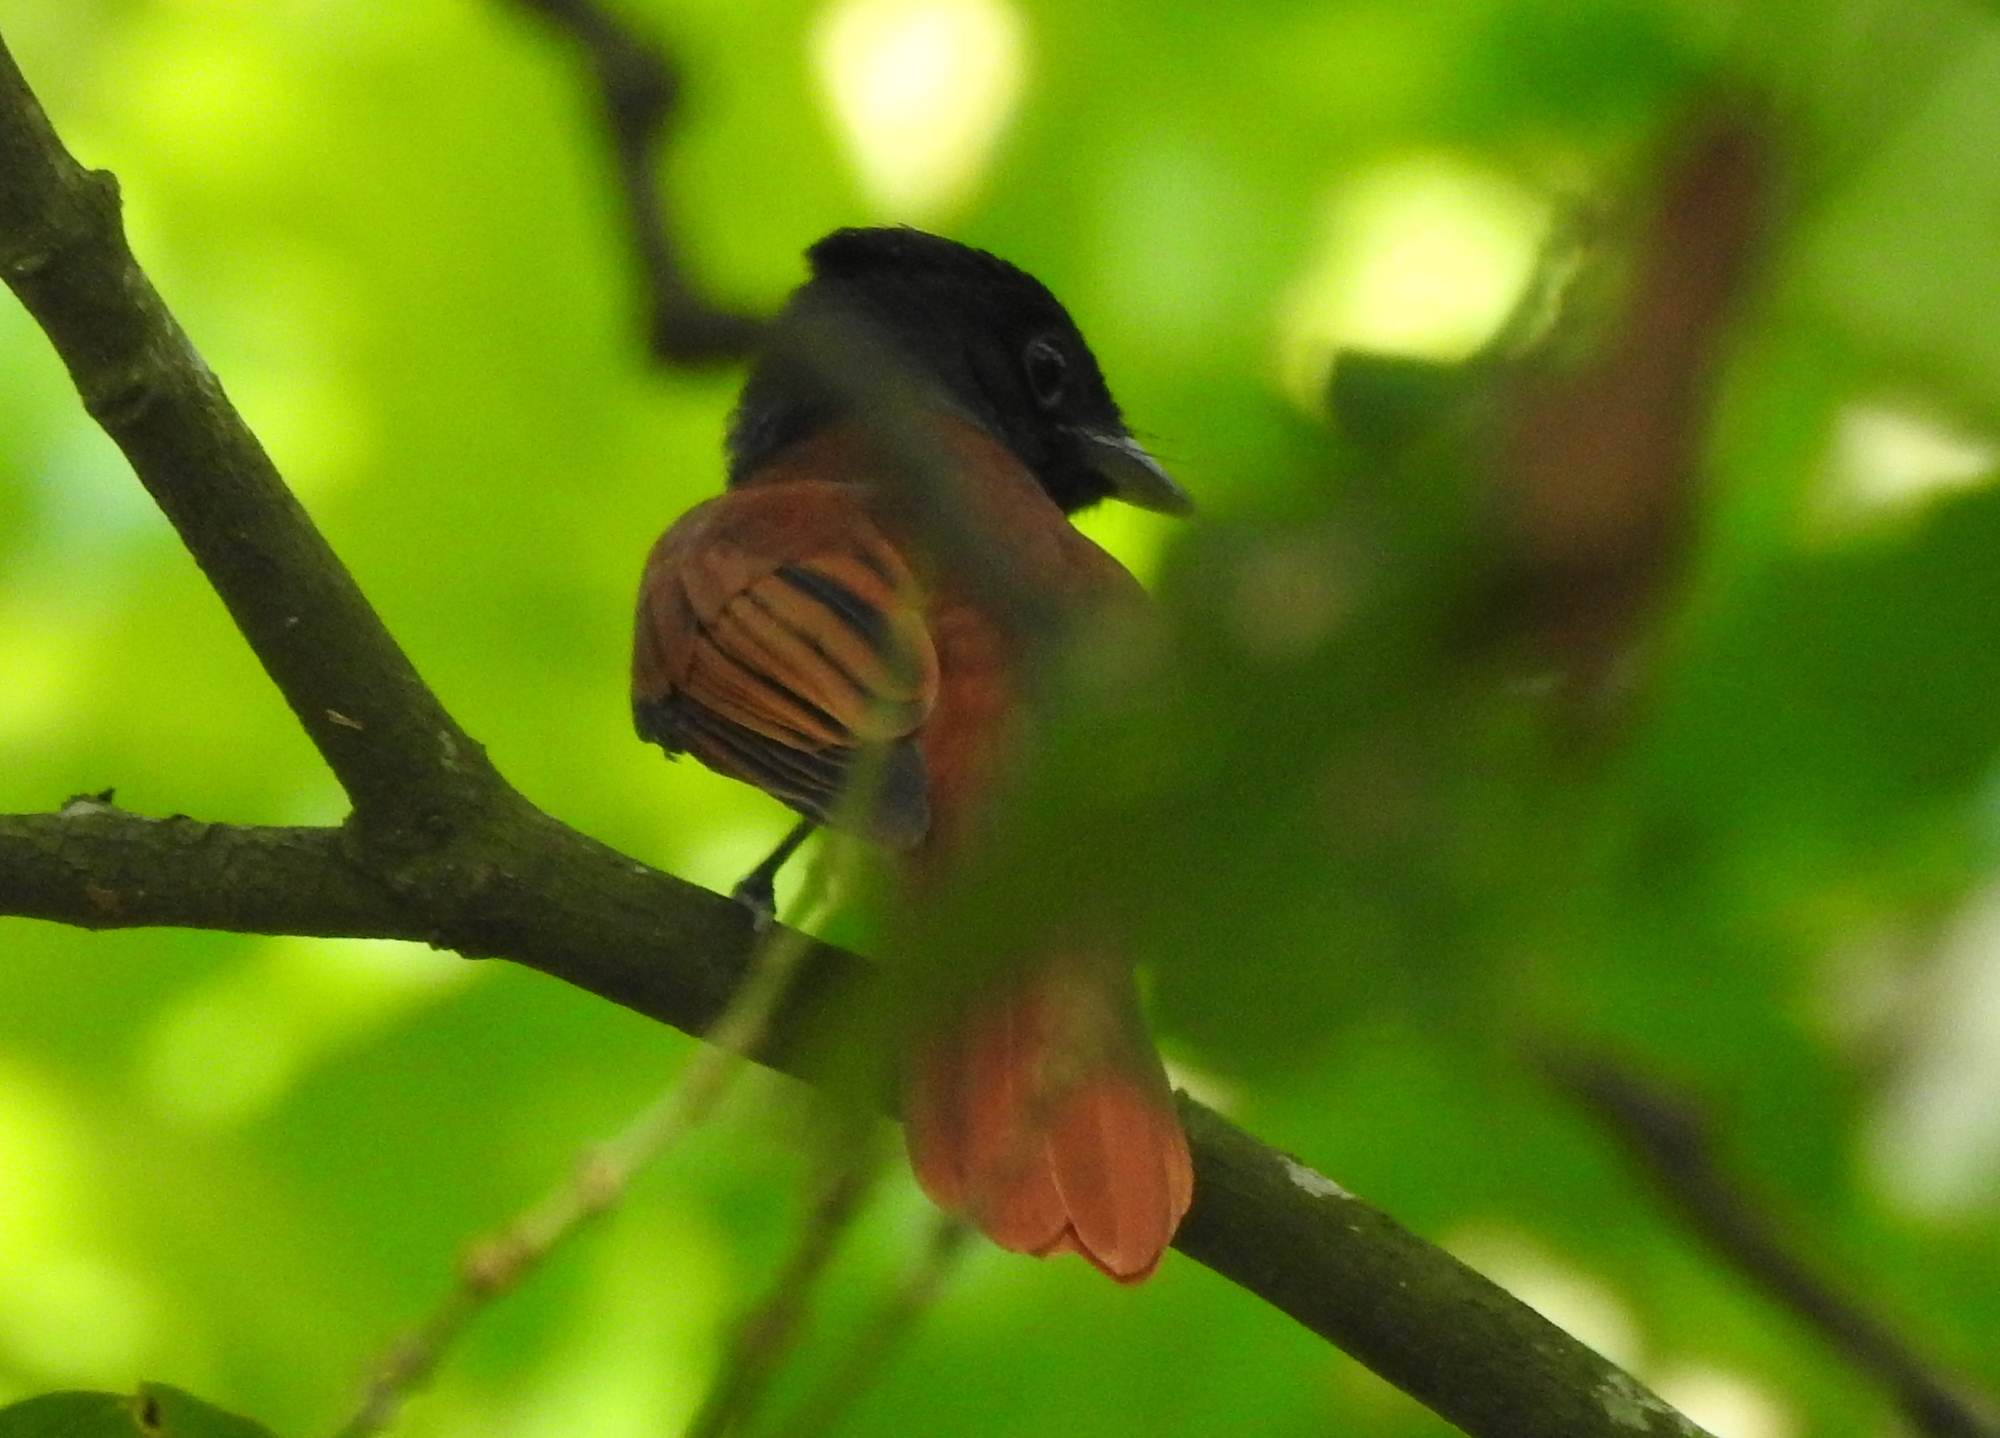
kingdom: Animalia
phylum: Chordata
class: Aves
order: Passeriformes
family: Monarchidae
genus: Terpsiphone
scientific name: Terpsiphone paradisi
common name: Indian paradise flycatcher
